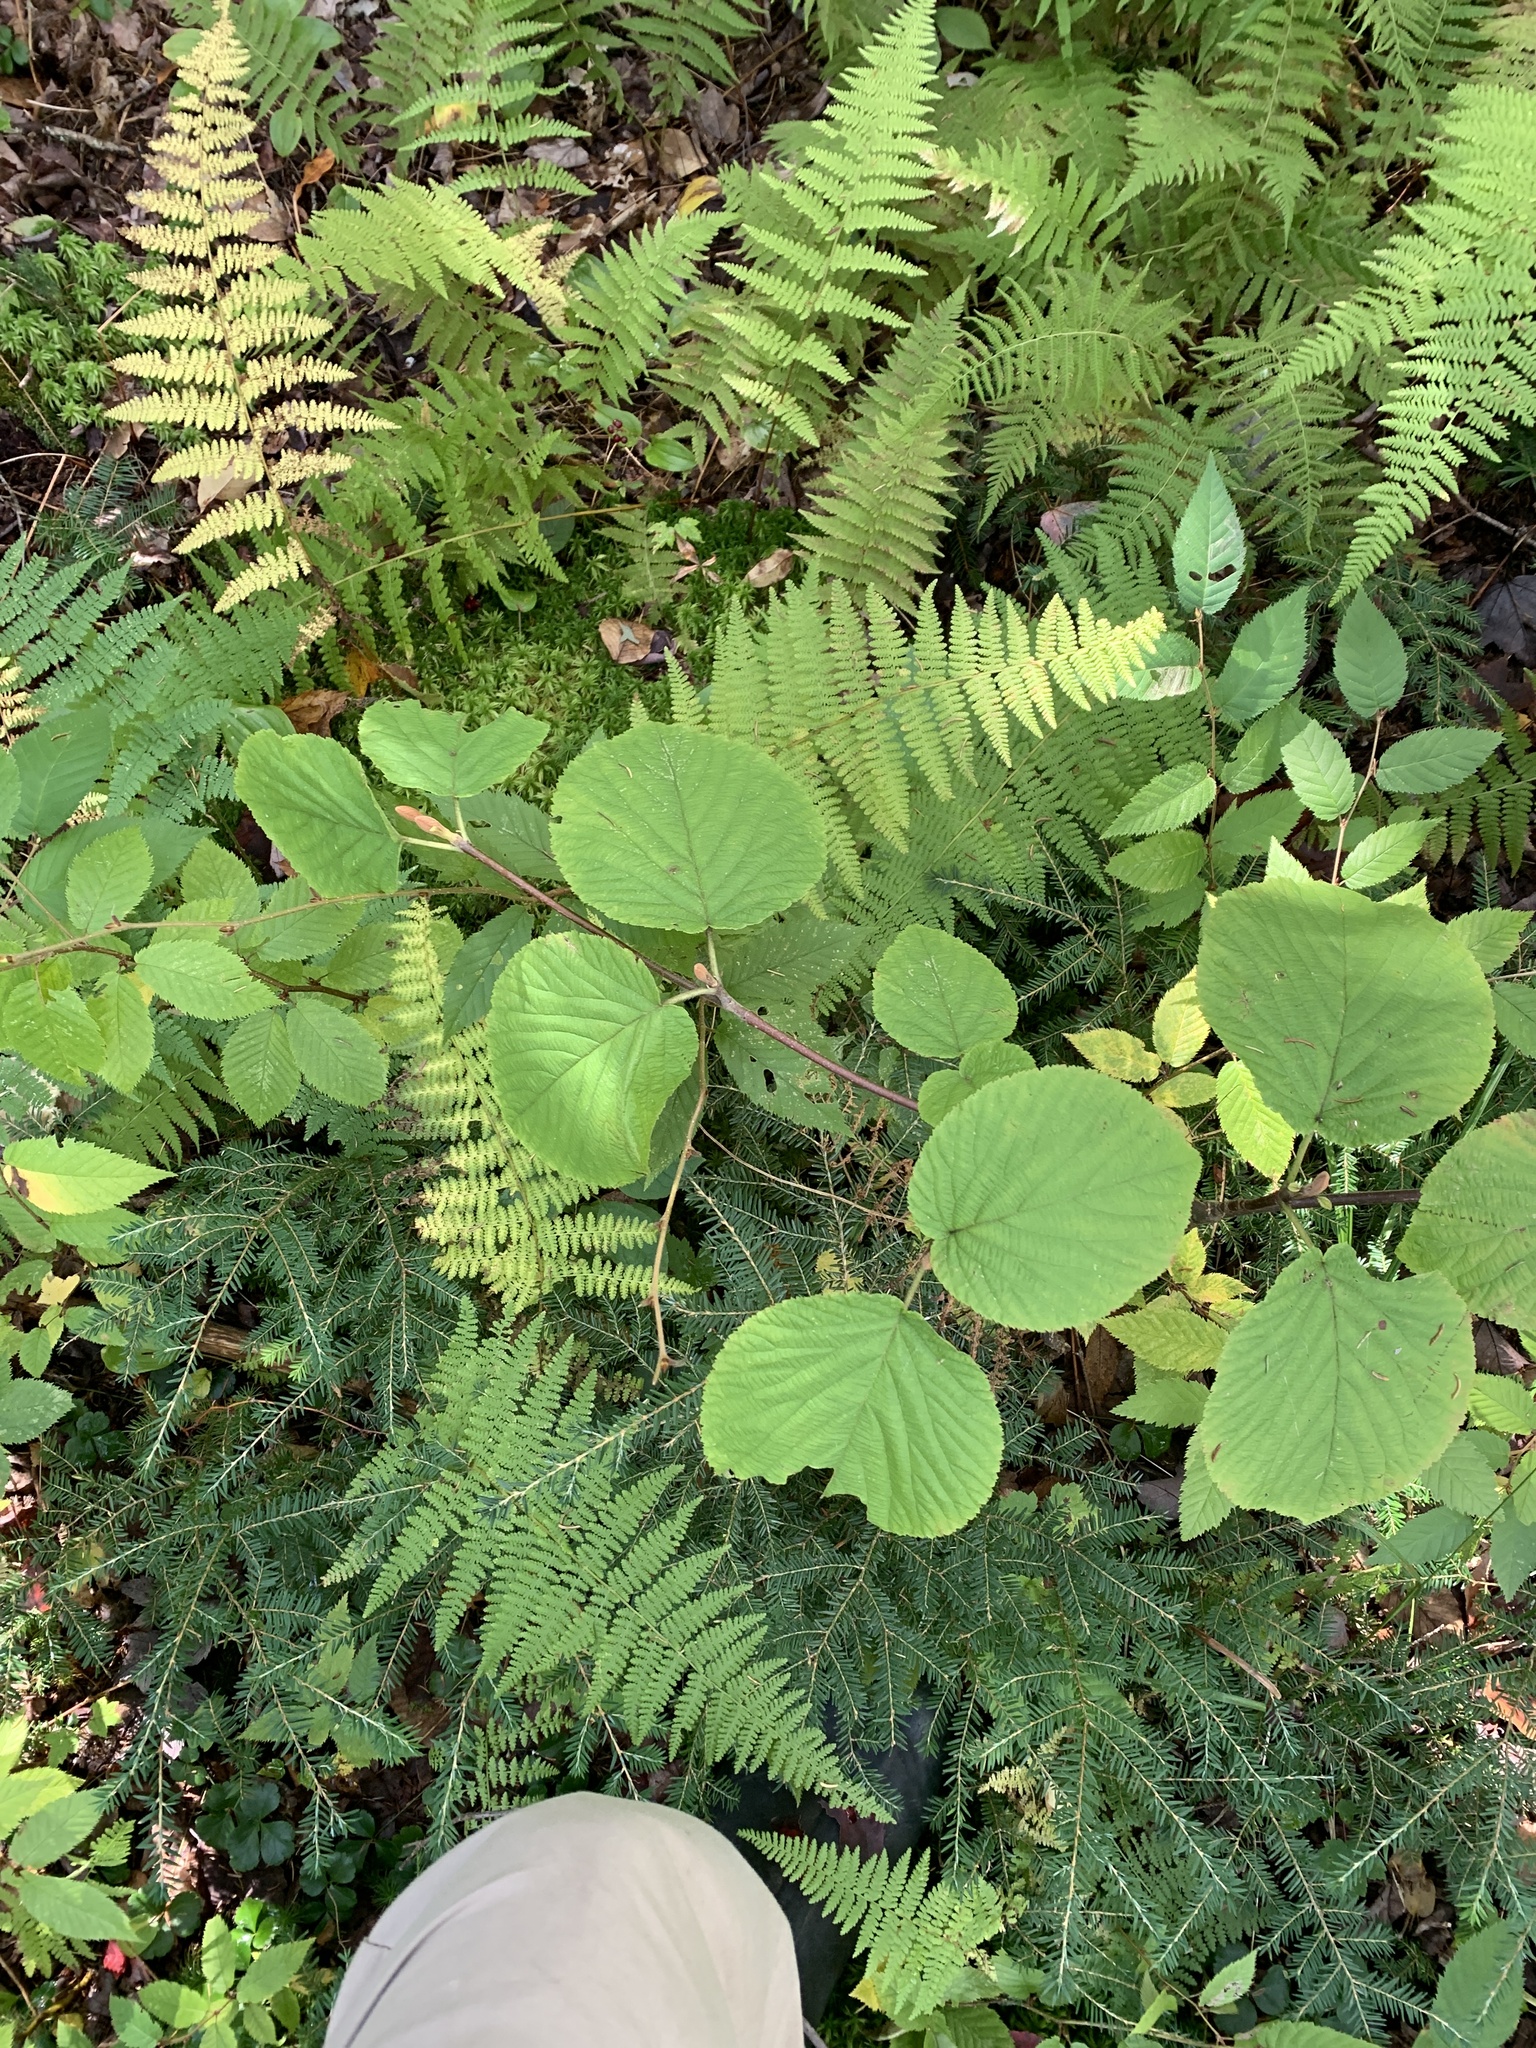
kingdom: Plantae
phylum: Tracheophyta
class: Magnoliopsida
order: Dipsacales
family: Viburnaceae
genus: Viburnum
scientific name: Viburnum lantanoides
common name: Hobblebush
